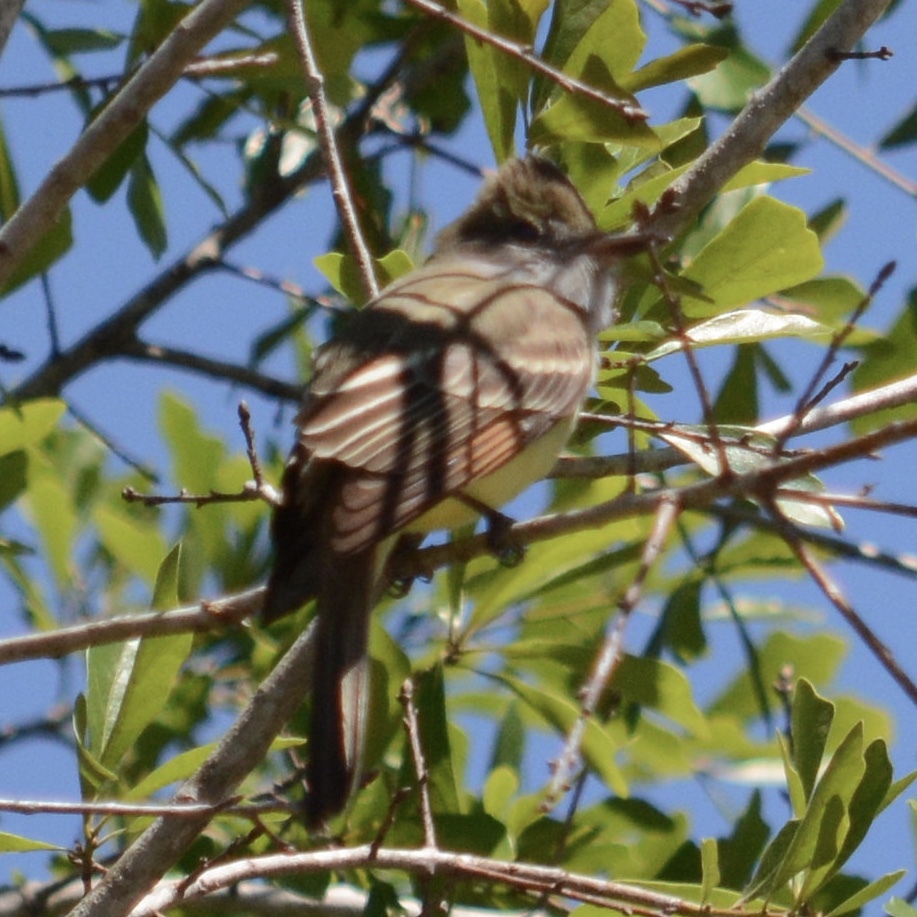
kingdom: Animalia
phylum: Chordata
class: Aves
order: Passeriformes
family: Tyrannidae
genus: Myiarchus
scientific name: Myiarchus crinitus
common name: Great crested flycatcher
